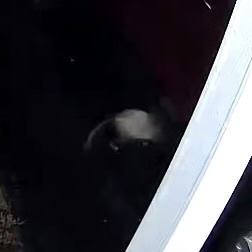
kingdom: Animalia
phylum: Chordata
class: Mammalia
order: Didelphimorphia
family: Didelphidae
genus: Didelphis
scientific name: Didelphis virginiana
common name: Virginia opossum
